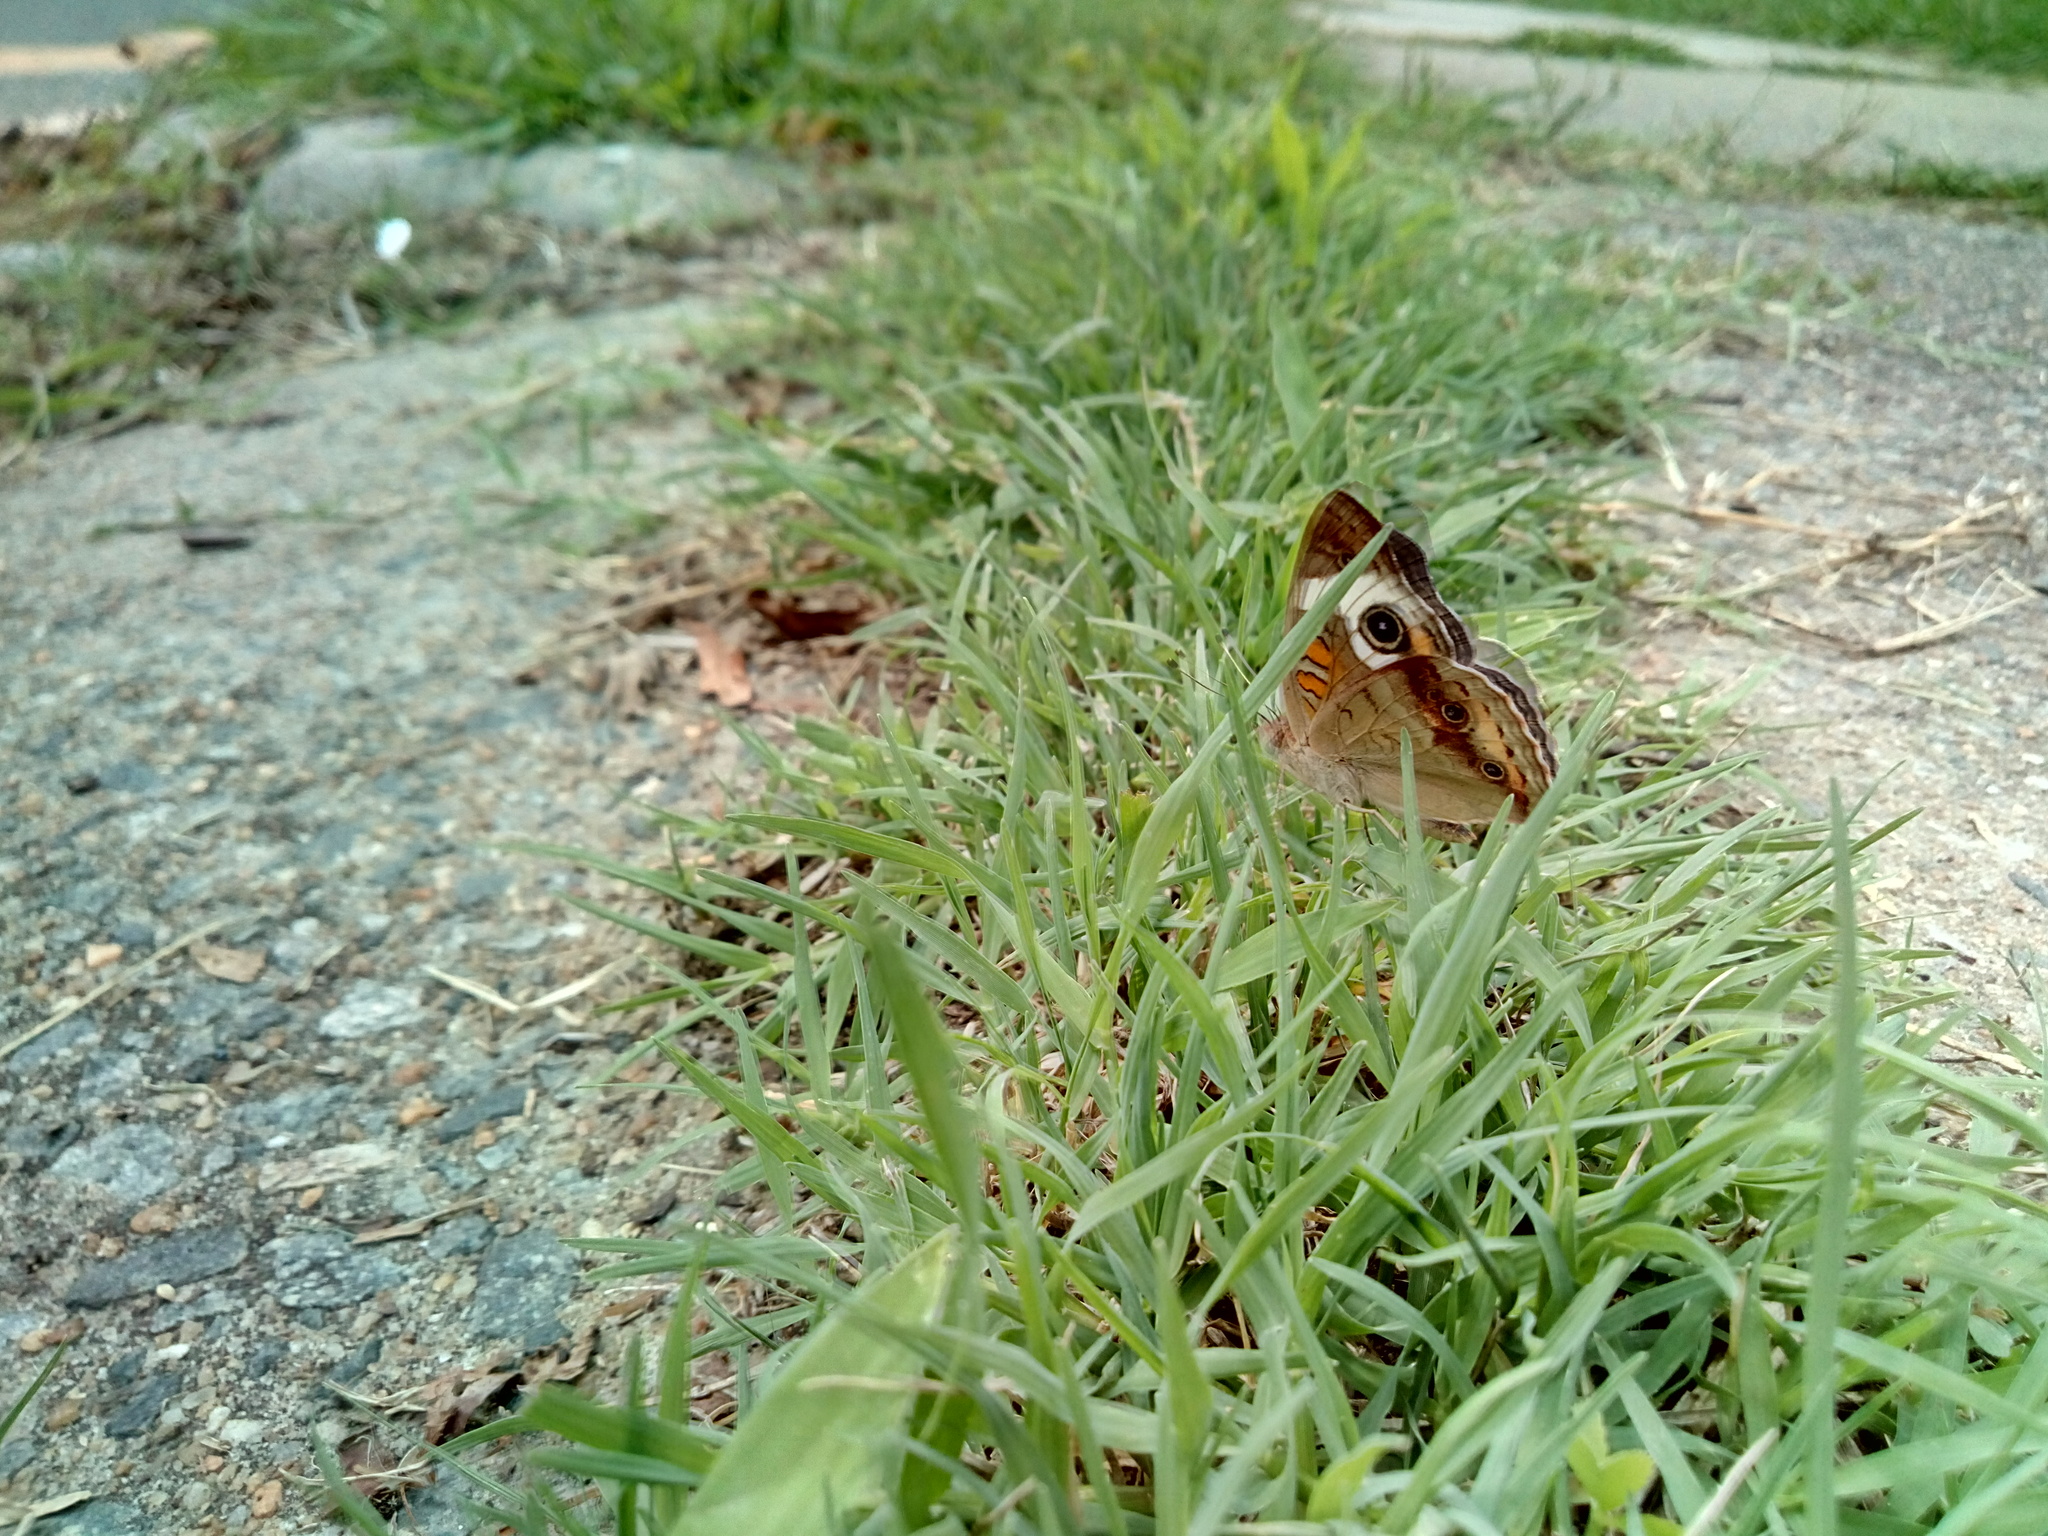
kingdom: Animalia
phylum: Arthropoda
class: Insecta
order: Lepidoptera
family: Nymphalidae
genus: Junonia
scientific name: Junonia coenia
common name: Common buckeye
